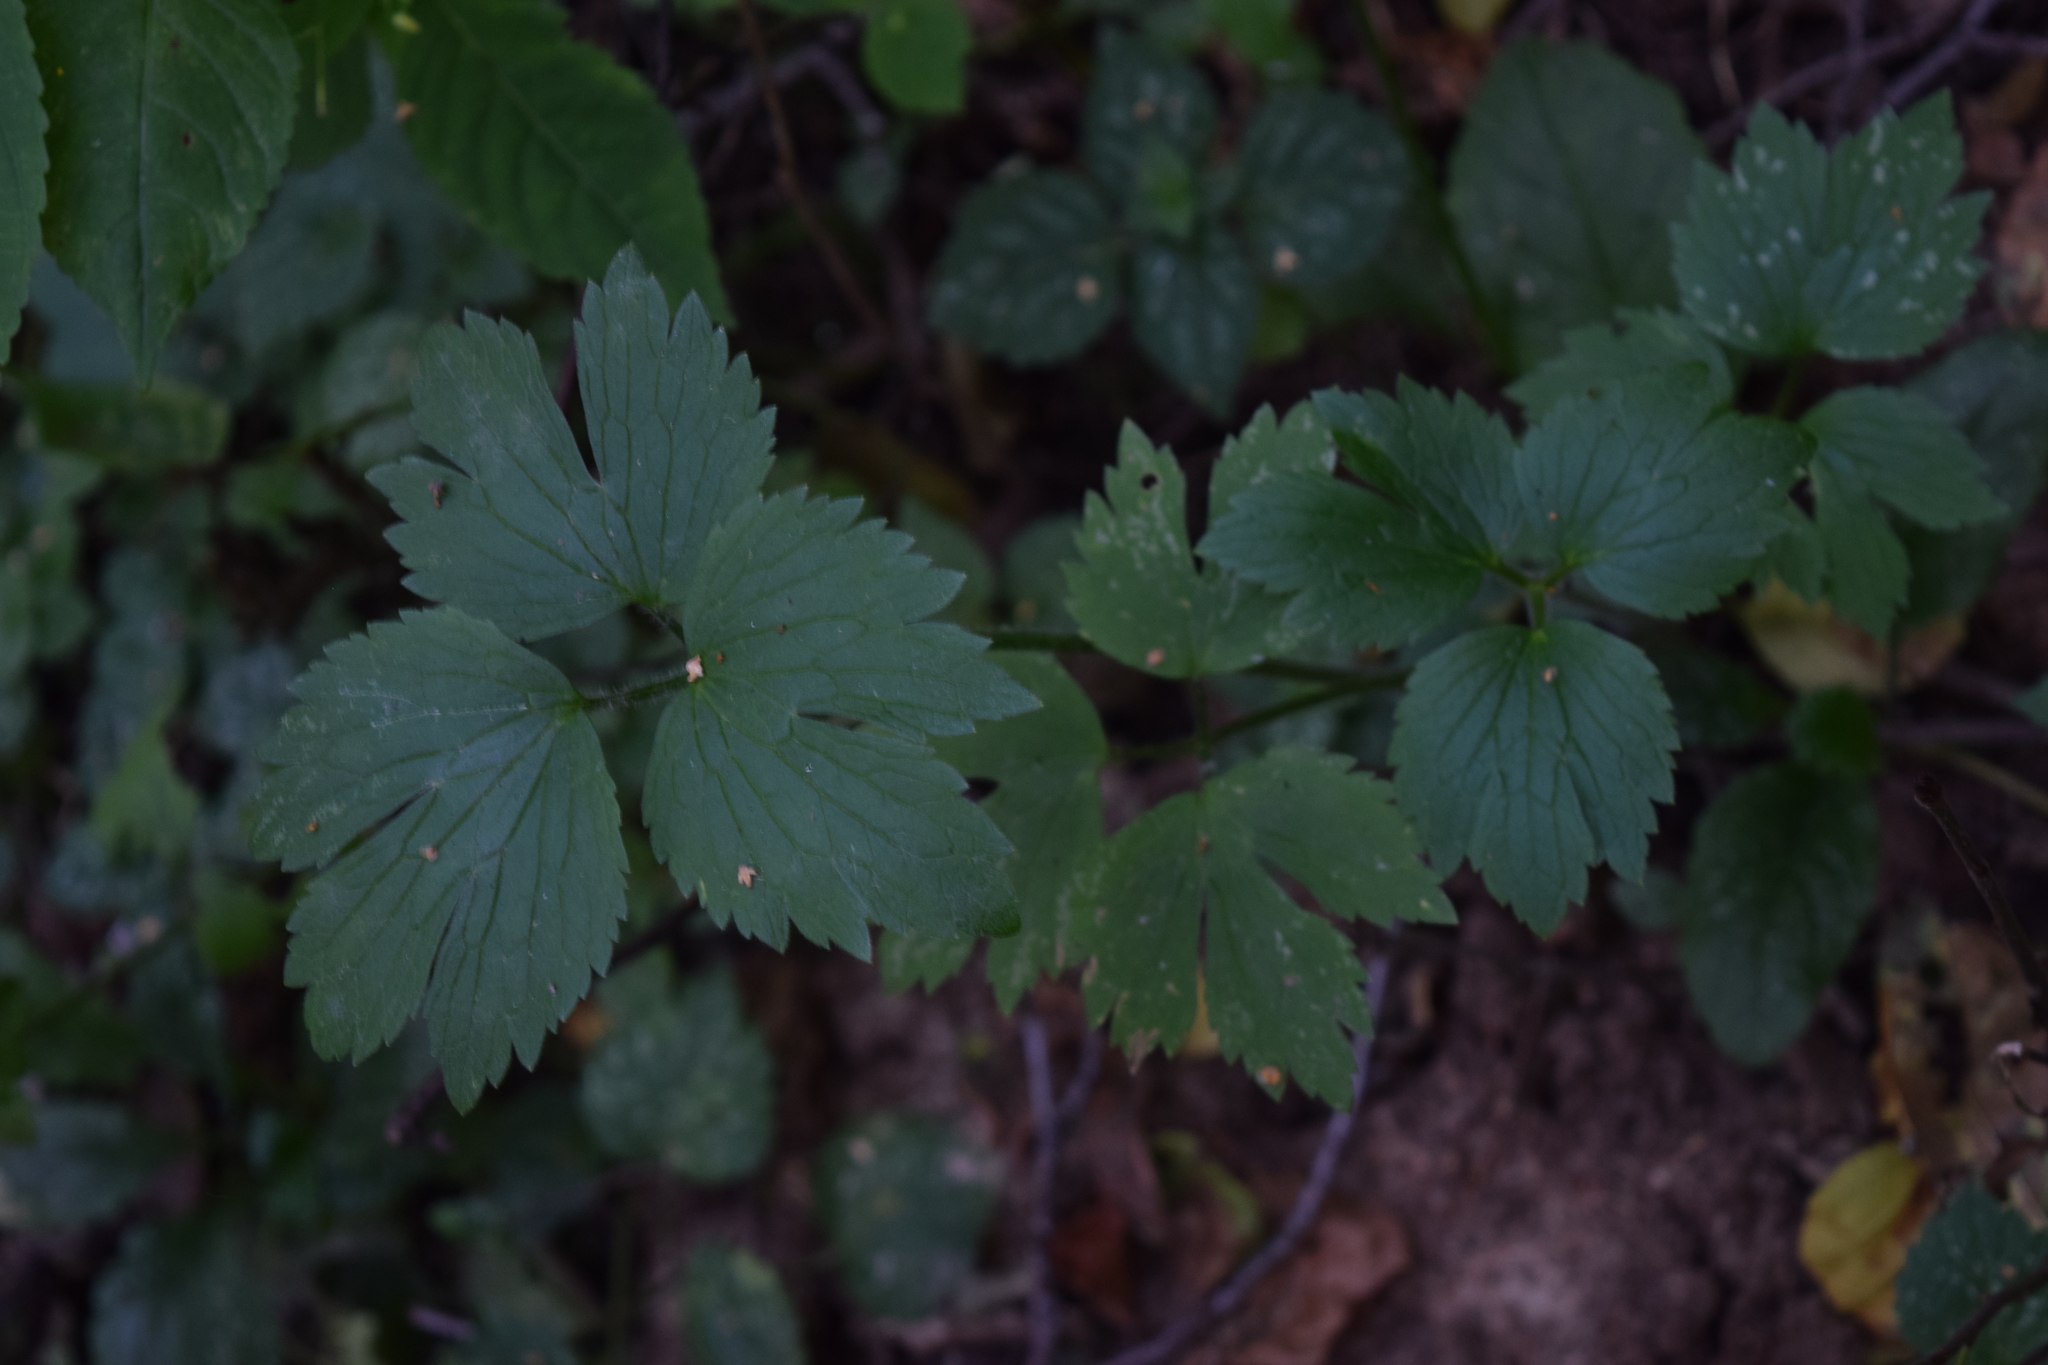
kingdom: Plantae
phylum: Tracheophyta
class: Magnoliopsida
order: Ranunculales
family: Ranunculaceae
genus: Ranunculus
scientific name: Ranunculus repens
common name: Creeping buttercup
